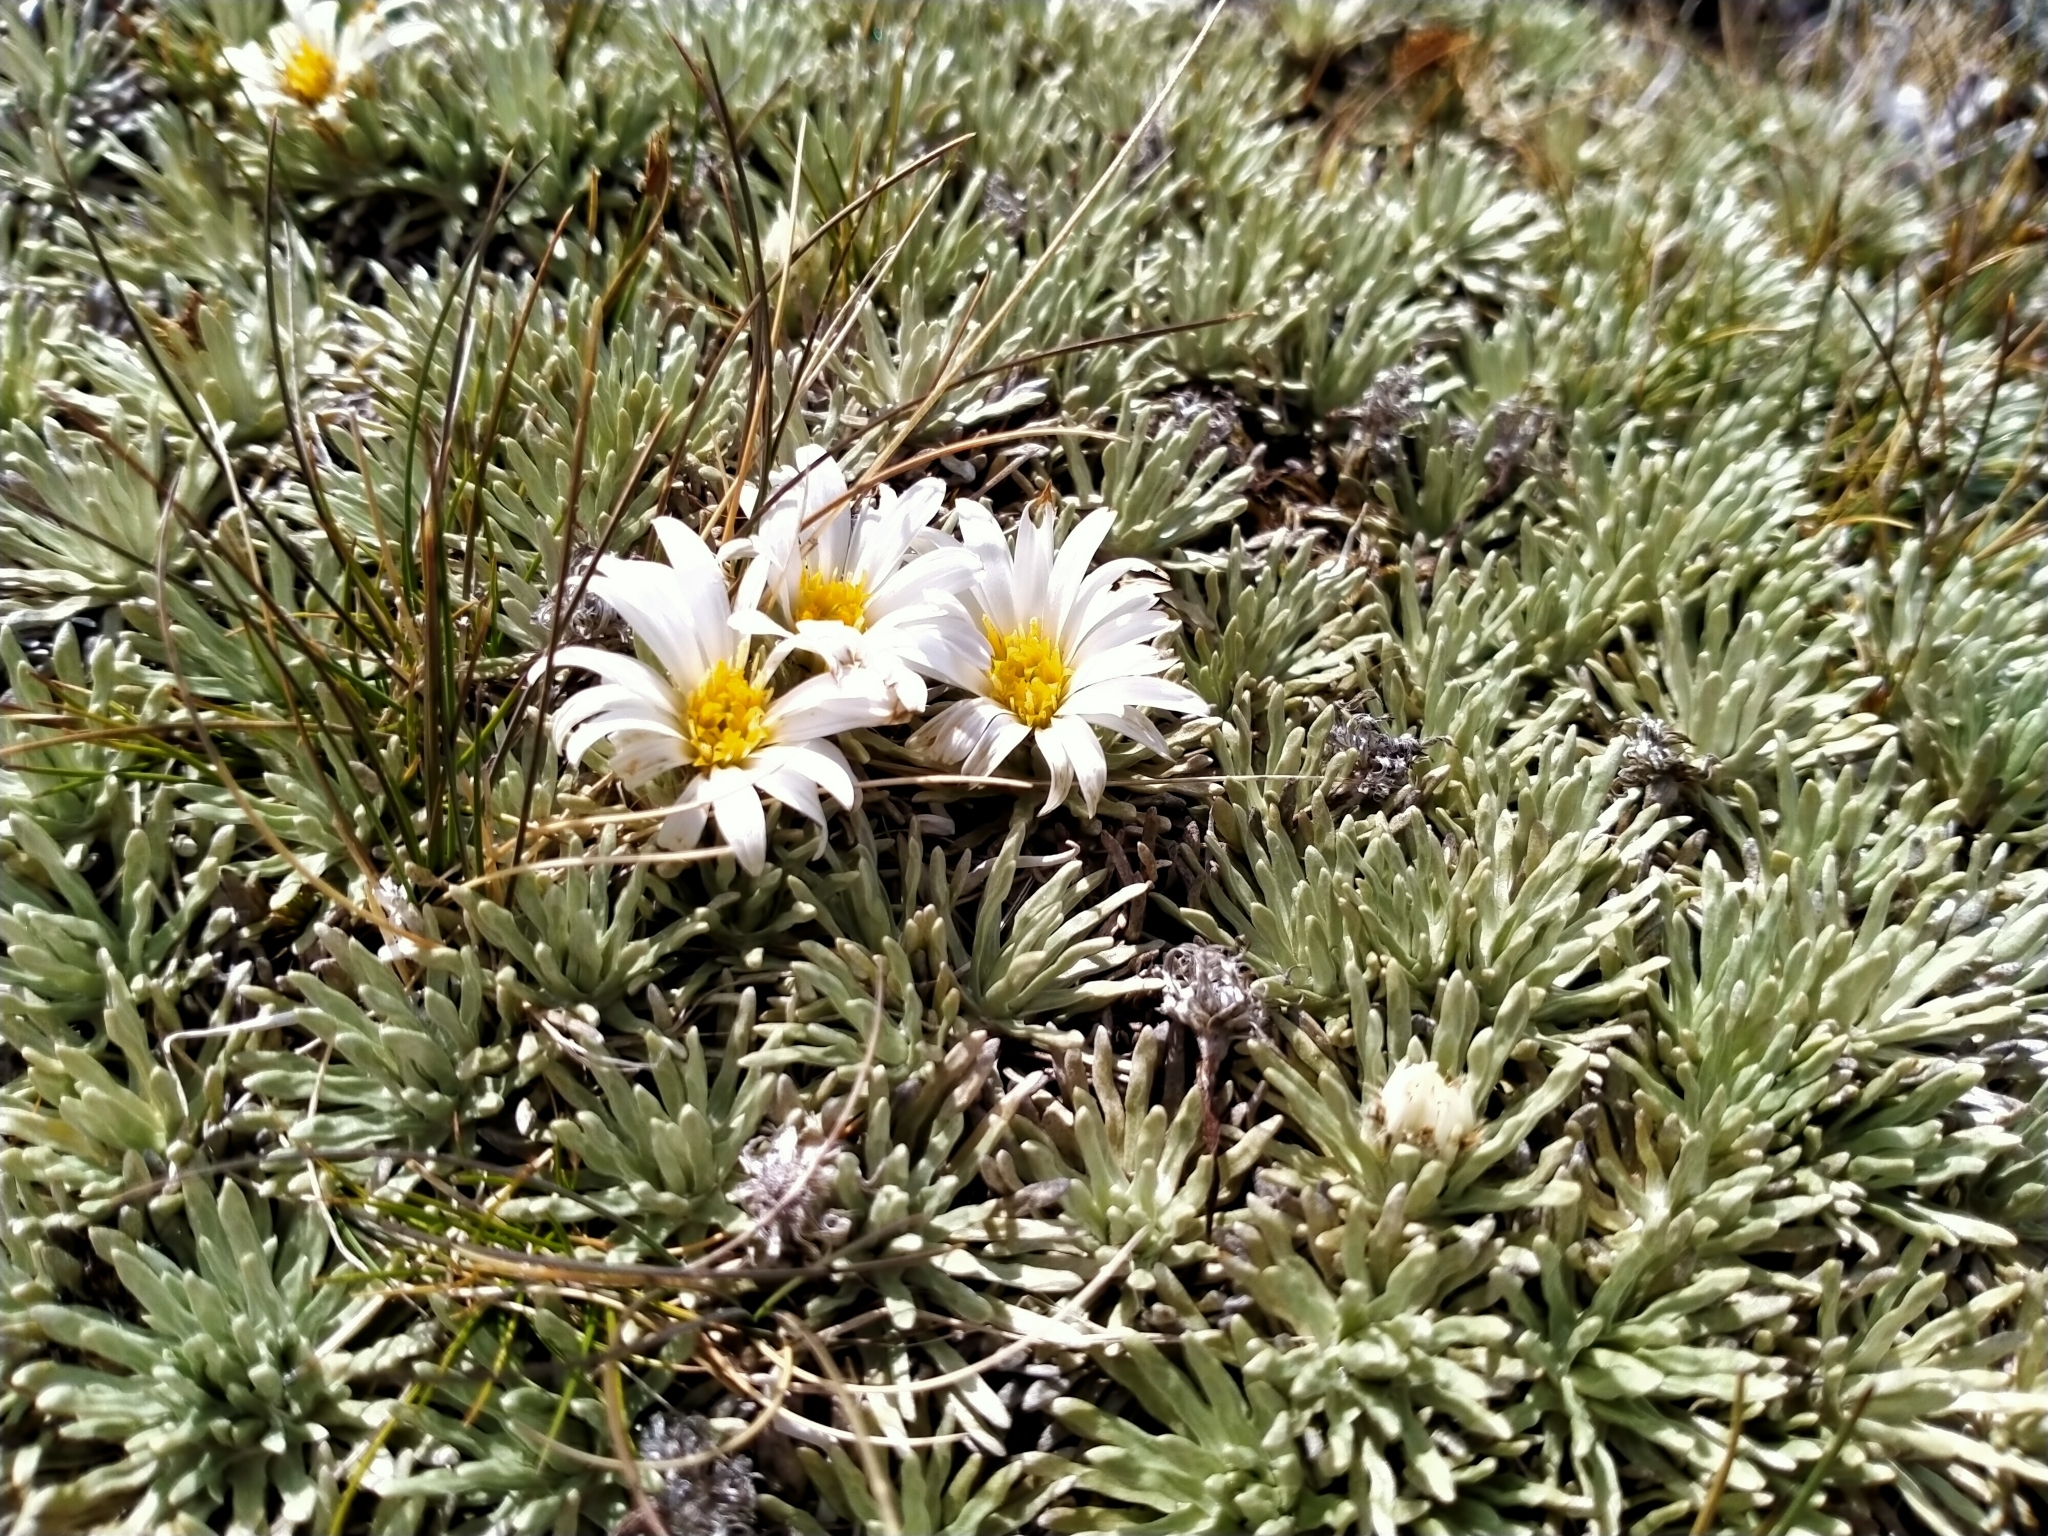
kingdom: Plantae
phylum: Tracheophyta
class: Magnoliopsida
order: Asterales
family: Asteraceae
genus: Celmisia
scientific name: Celmisia sessiliflora
